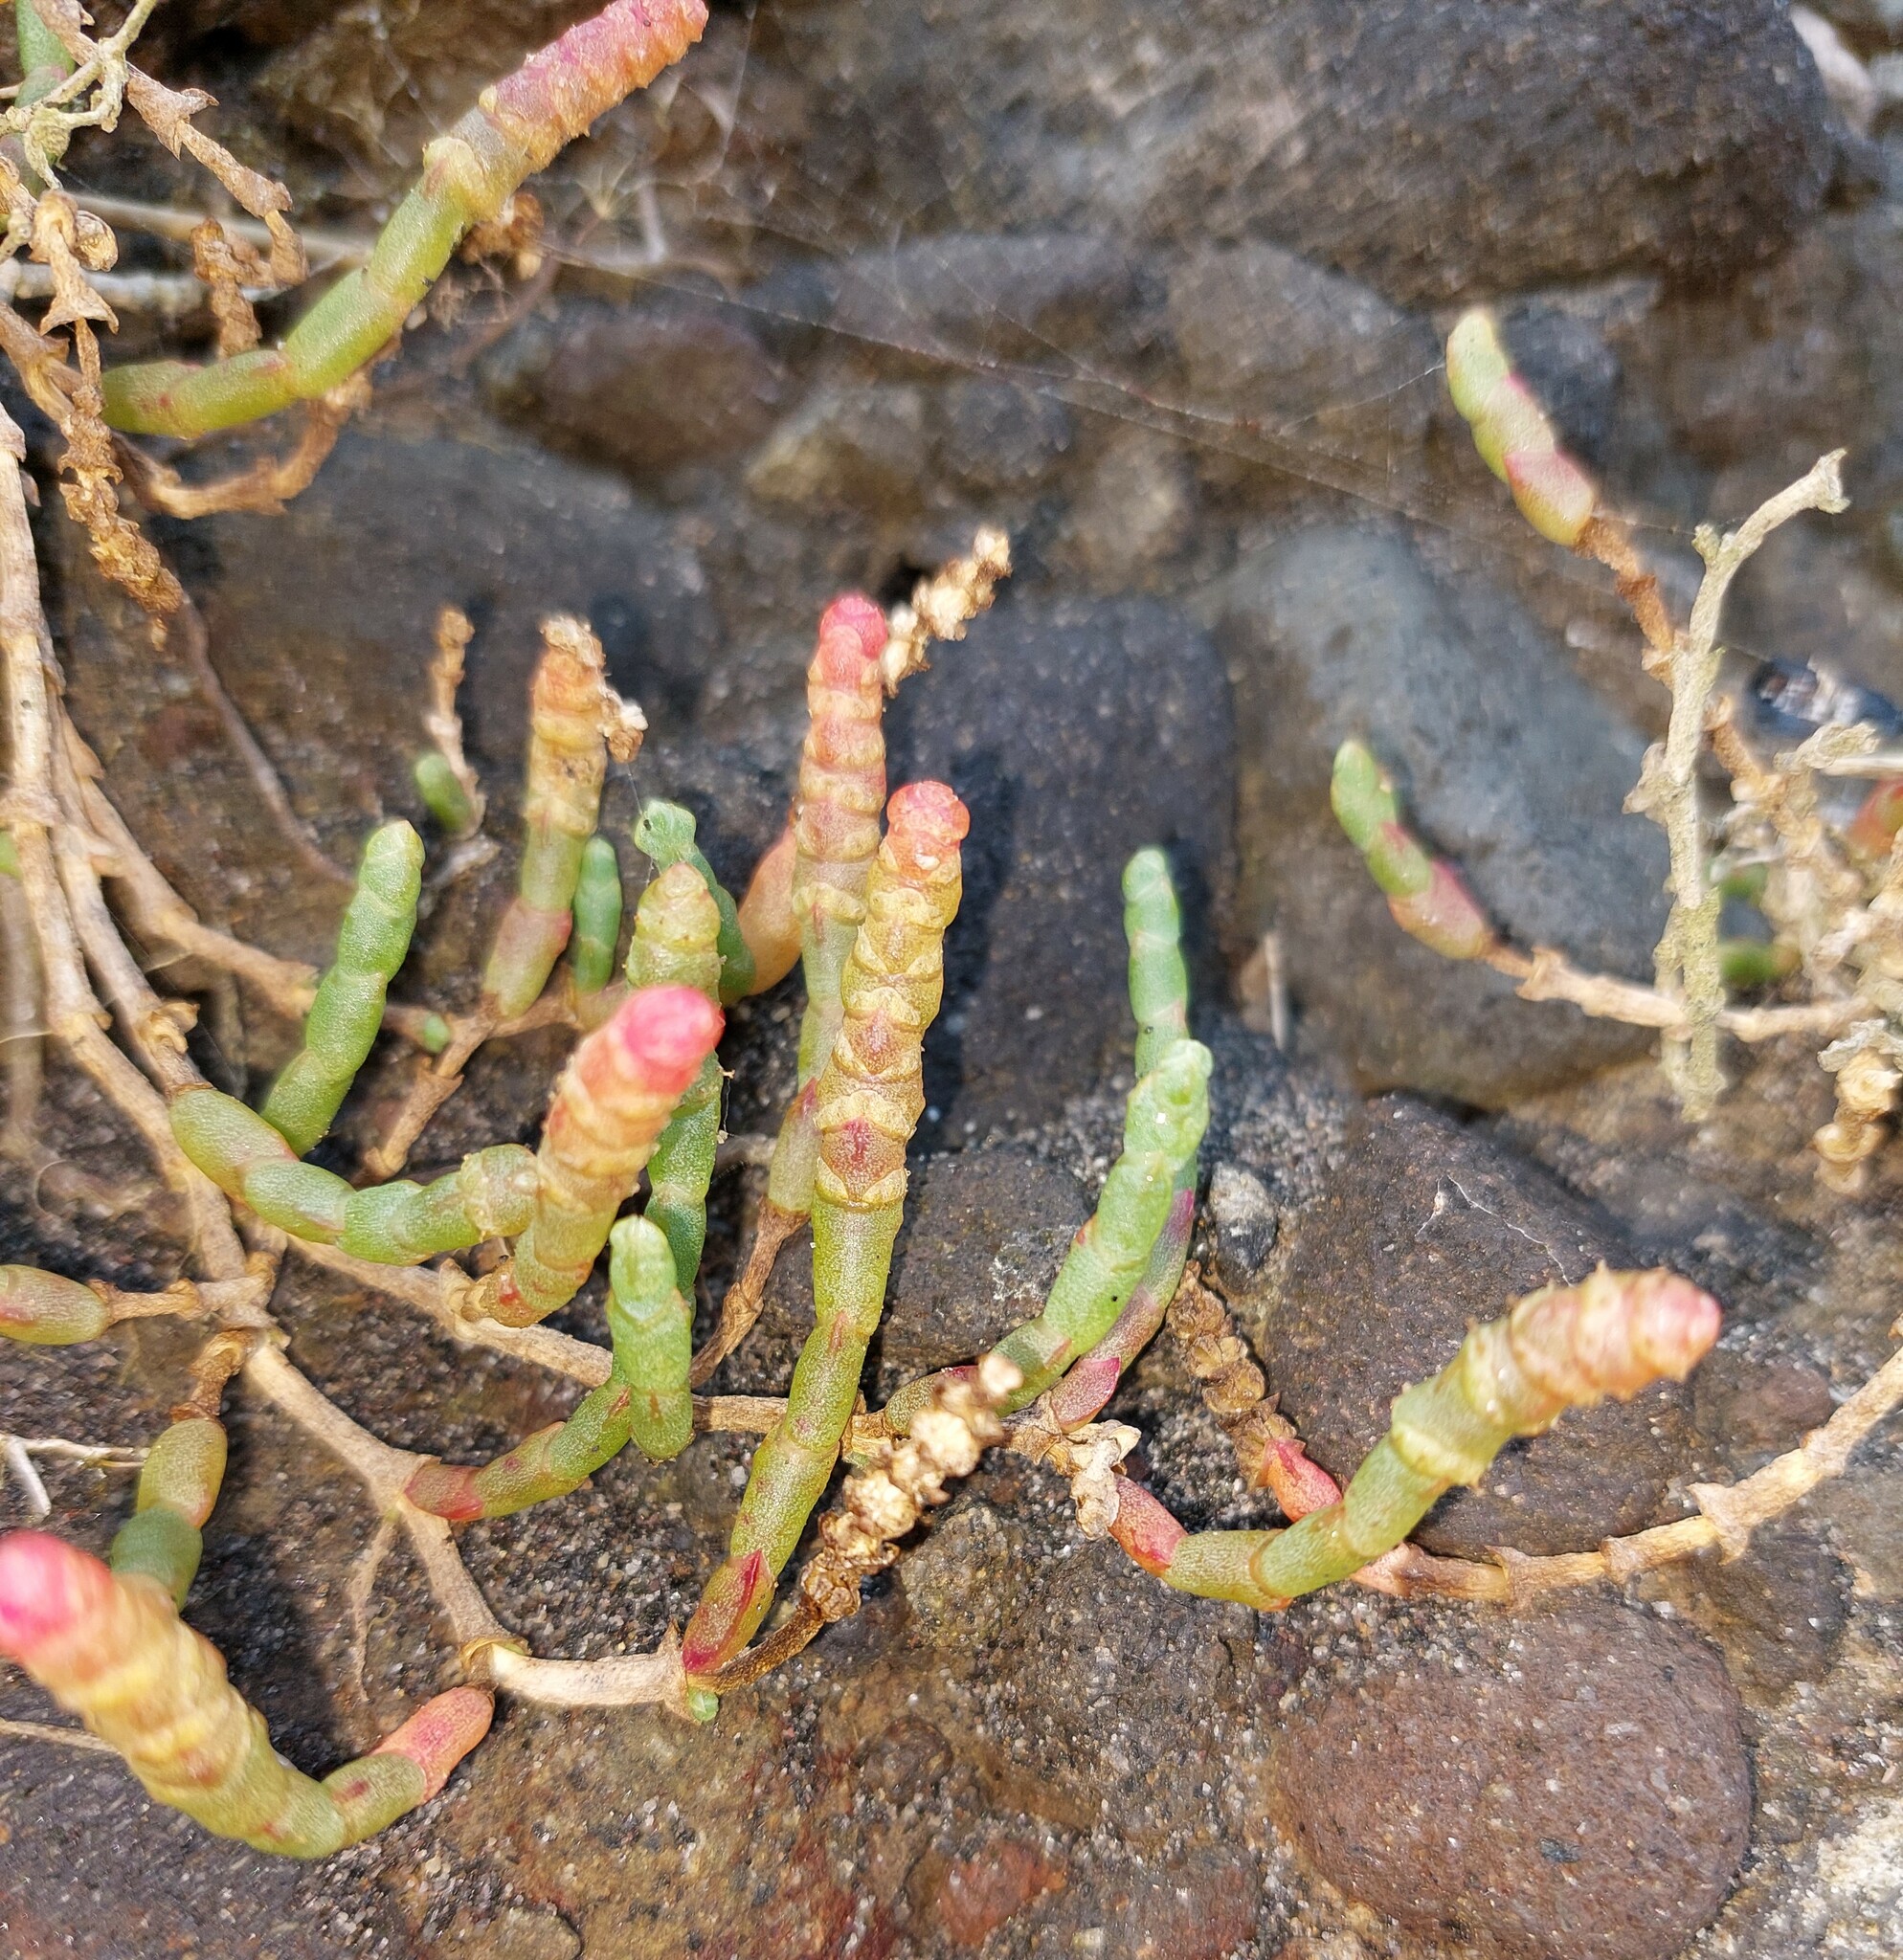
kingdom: Plantae
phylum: Tracheophyta
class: Magnoliopsida
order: Caryophyllales
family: Amaranthaceae
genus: Salicornia
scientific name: Salicornia quinqueflora
